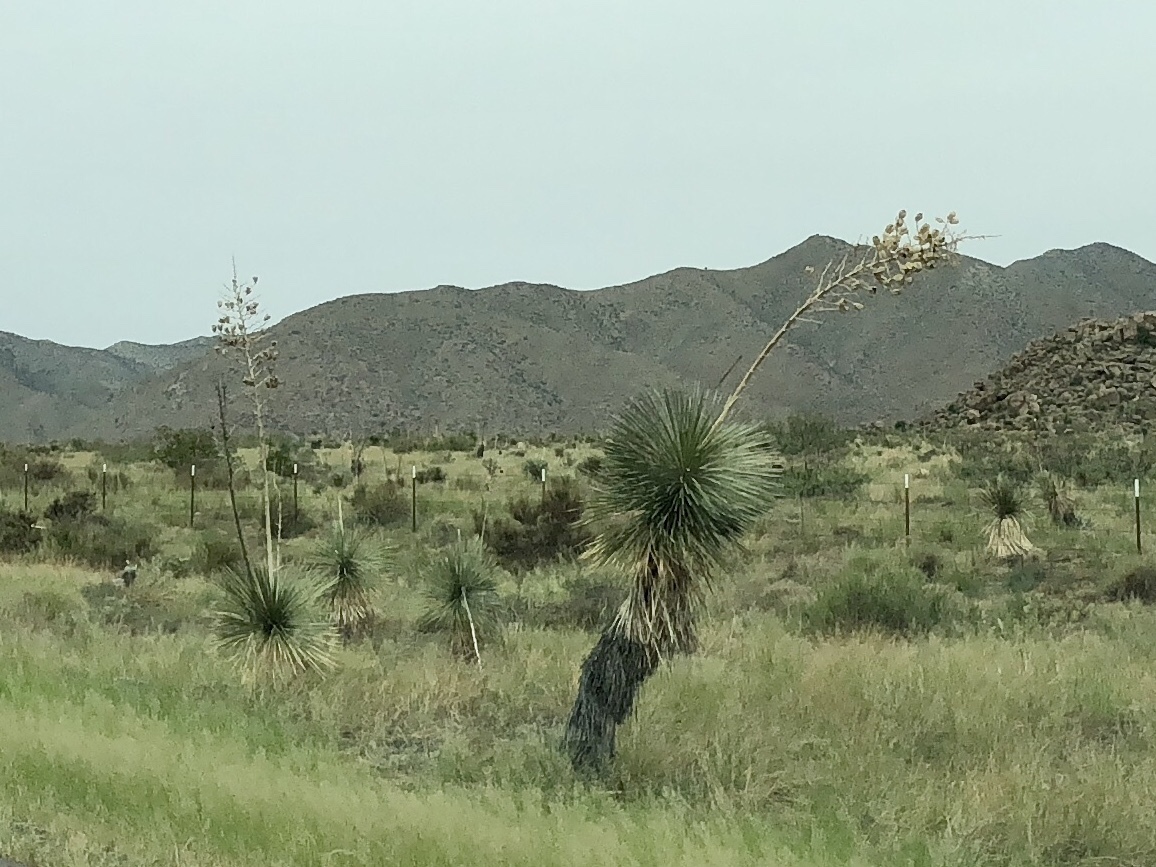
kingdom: Plantae
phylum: Tracheophyta
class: Liliopsida
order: Asparagales
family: Asparagaceae
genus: Yucca
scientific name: Yucca elata
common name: Palmella
